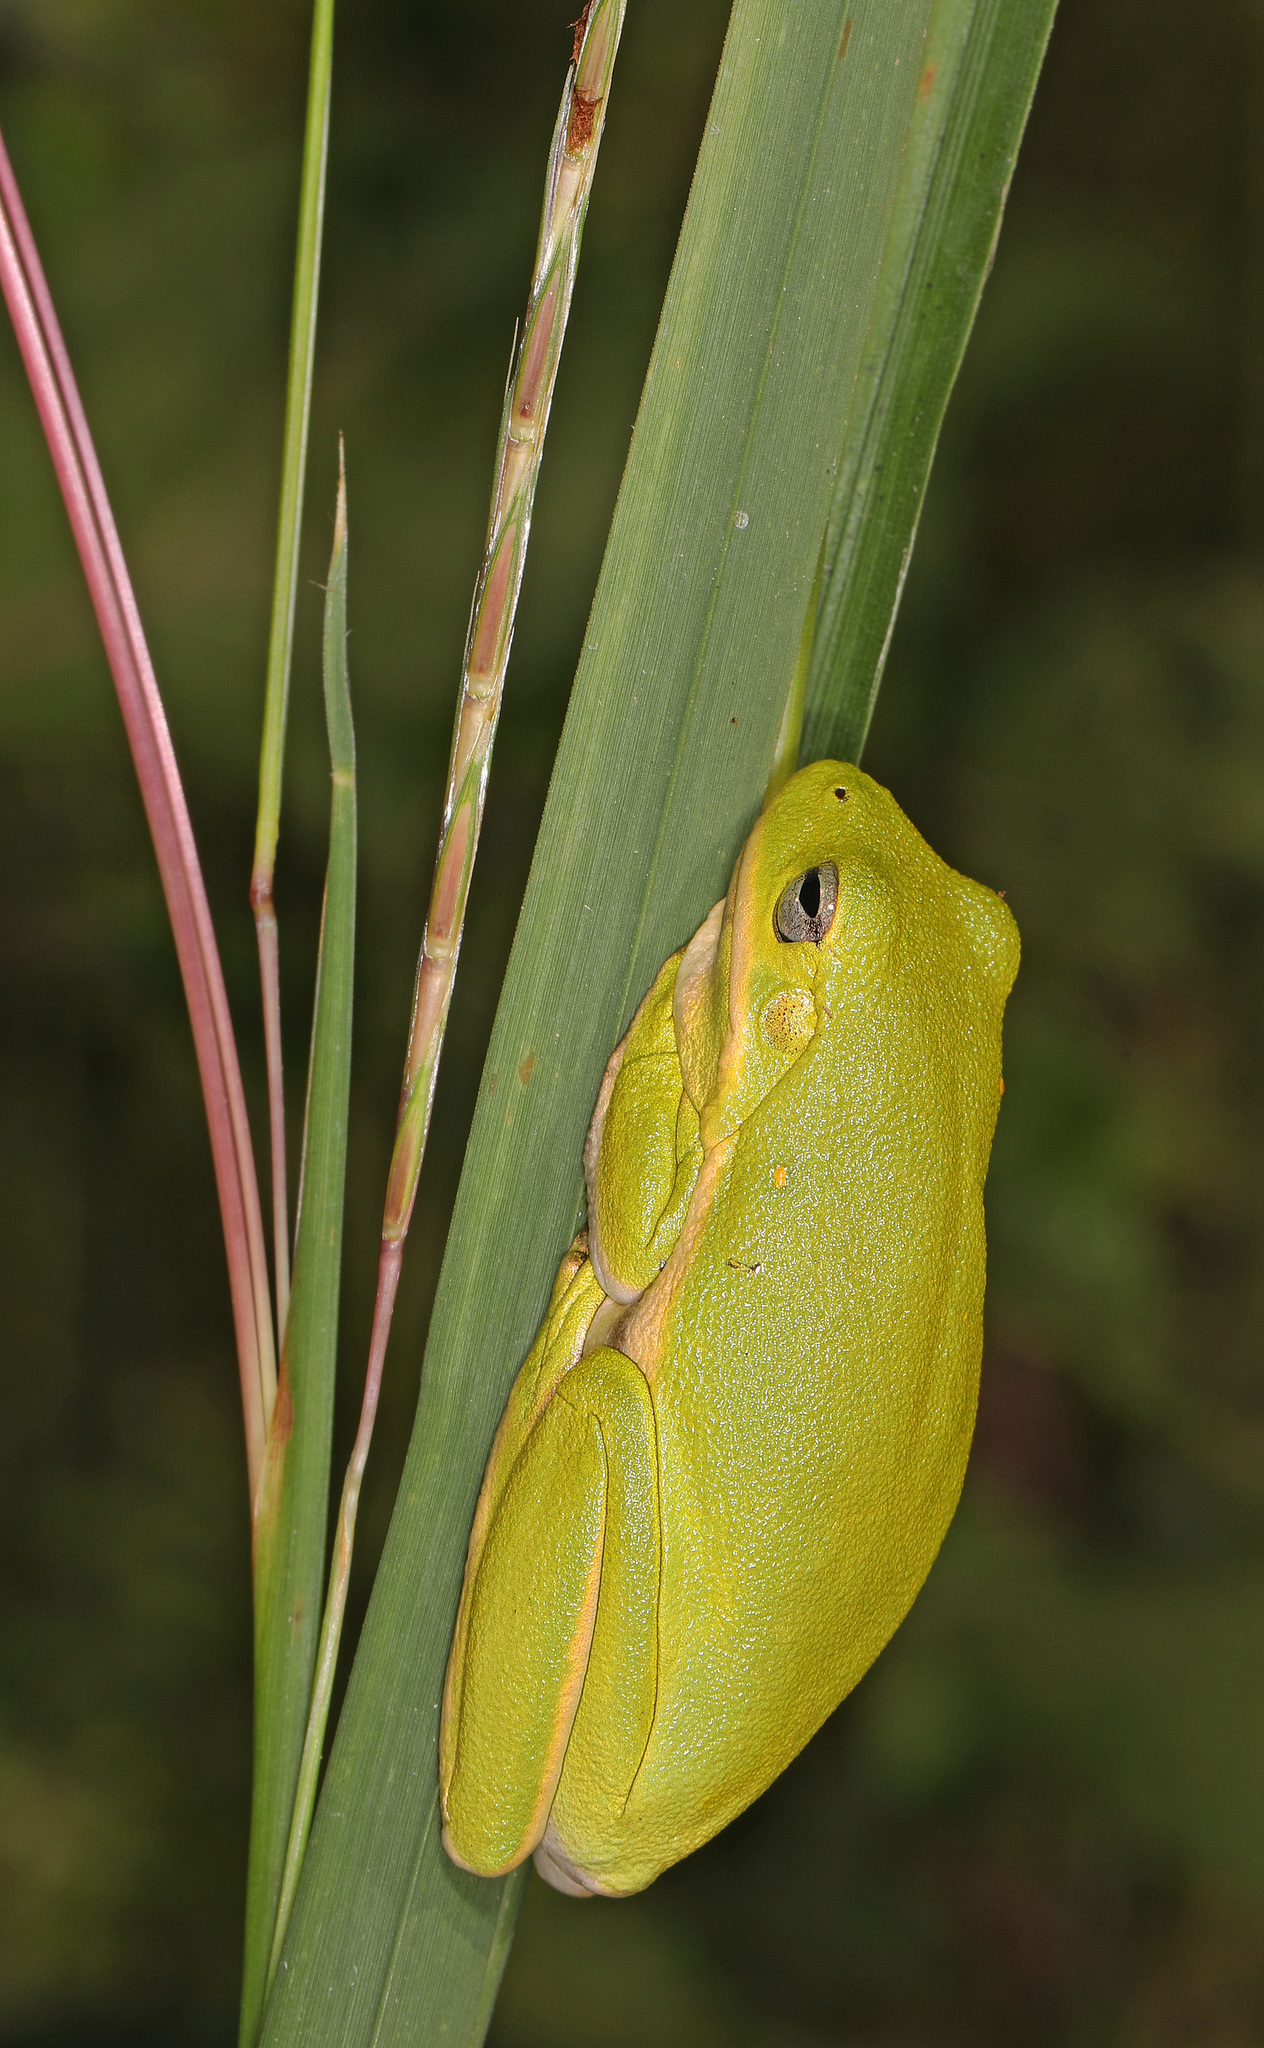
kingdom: Animalia
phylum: Chordata
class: Amphibia
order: Anura
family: Hylidae
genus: Dryophytes
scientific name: Dryophytes cinereus
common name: Green treefrog
